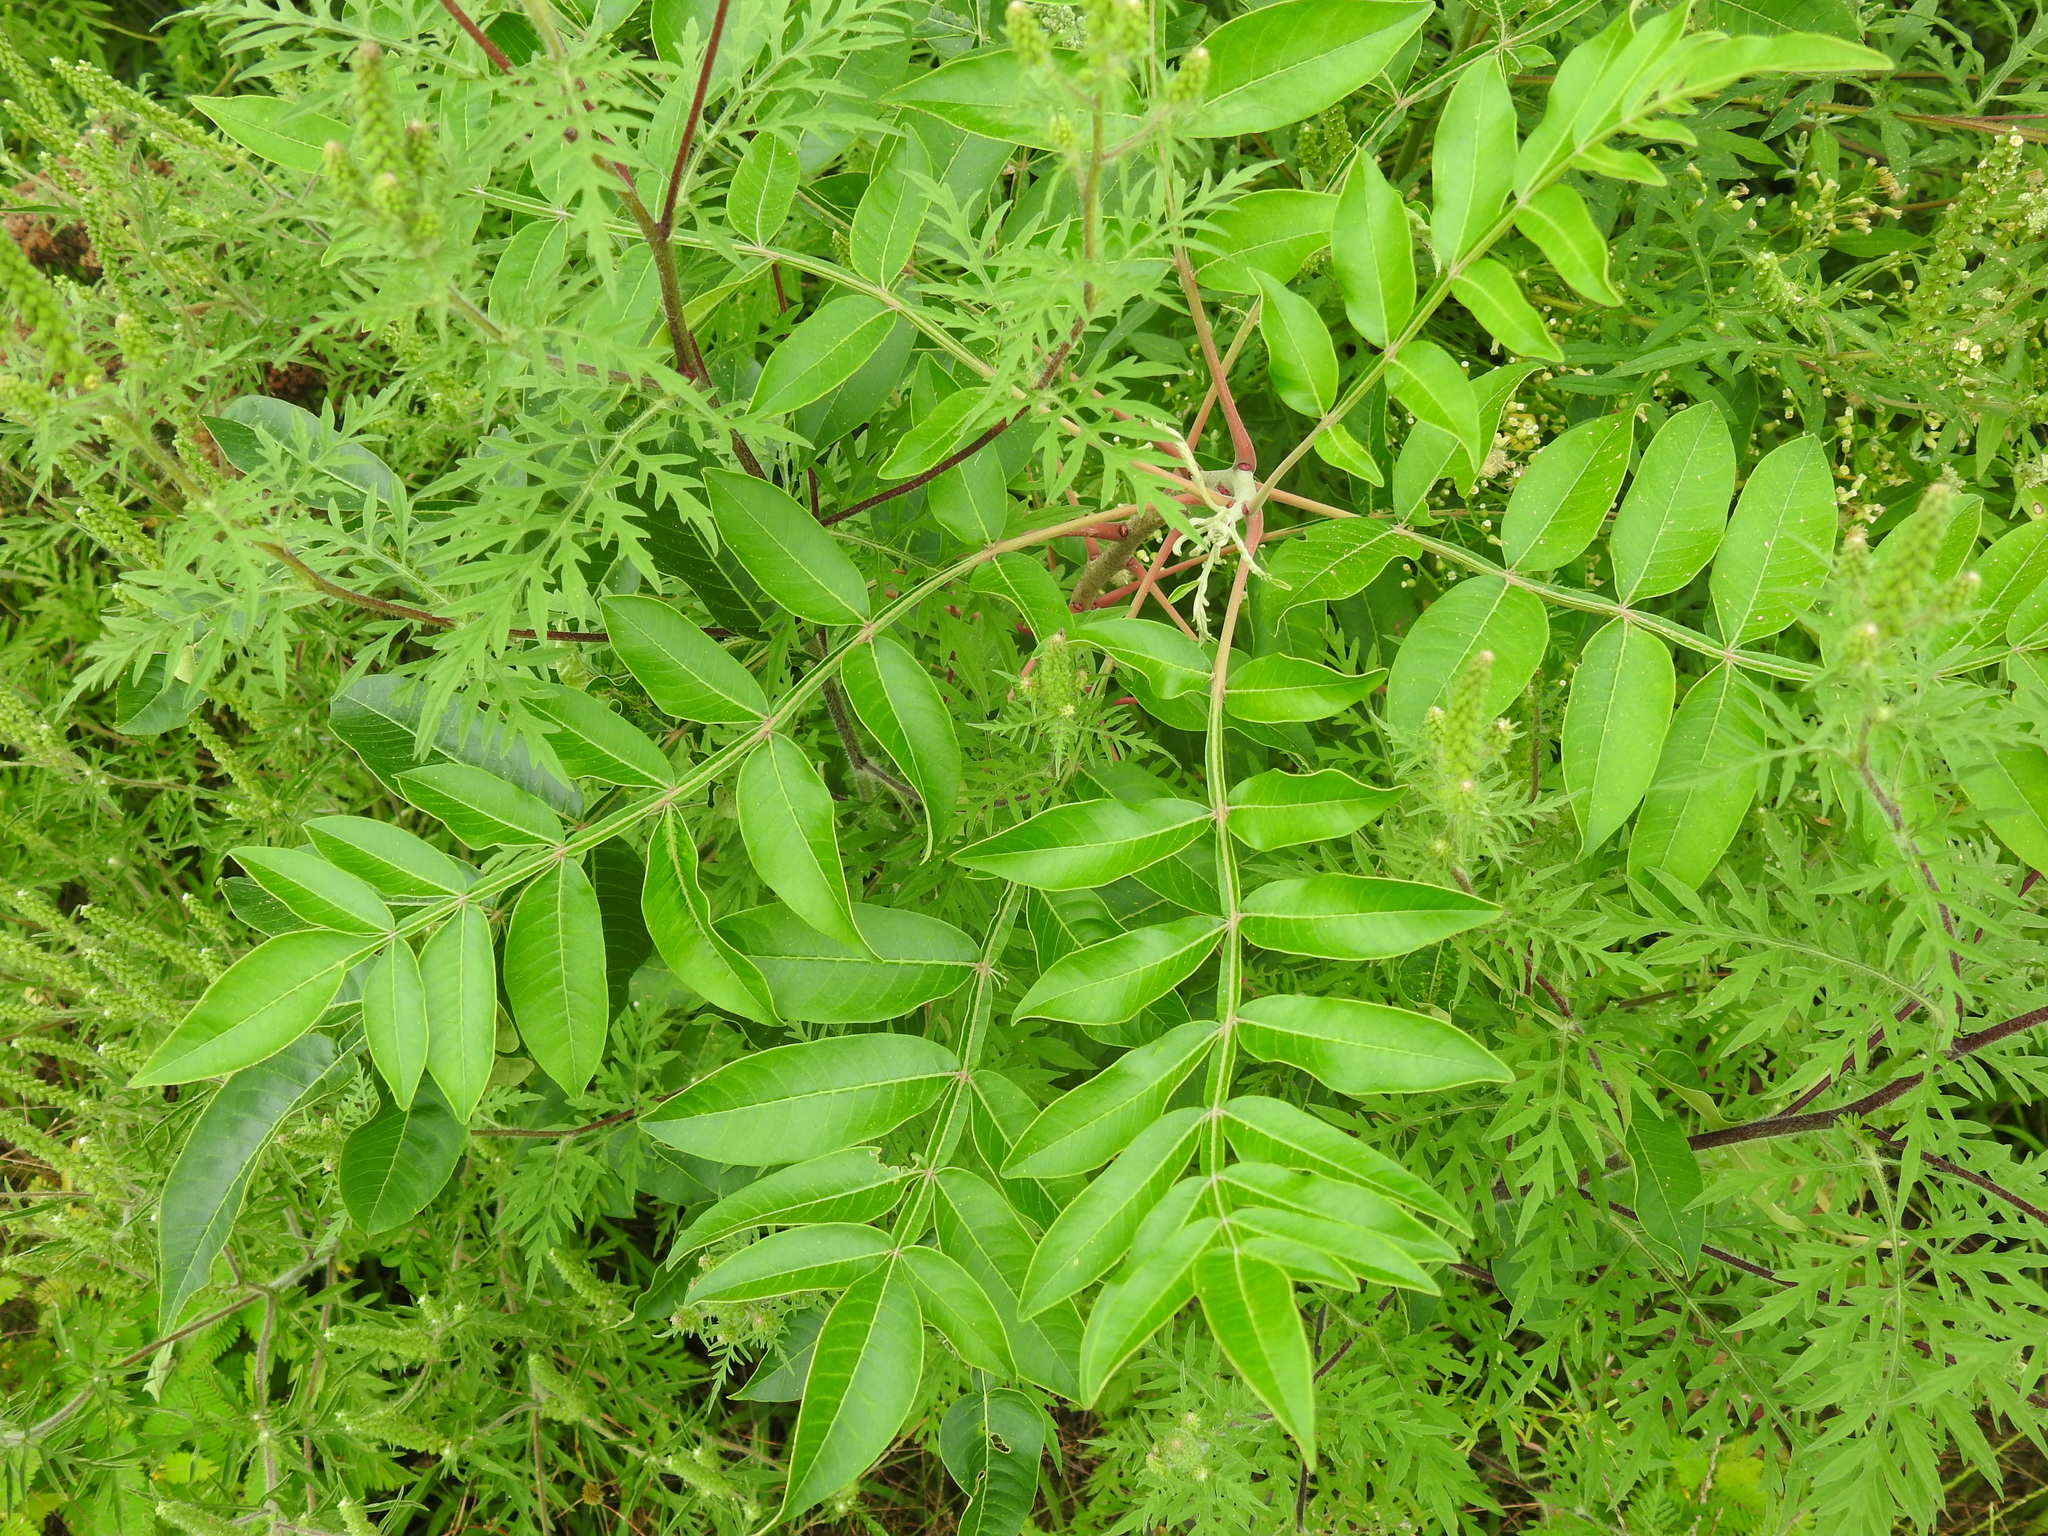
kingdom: Plantae
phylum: Tracheophyta
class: Magnoliopsida
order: Sapindales
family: Anacardiaceae
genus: Rhus
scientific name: Rhus copallina
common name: Shining sumac
